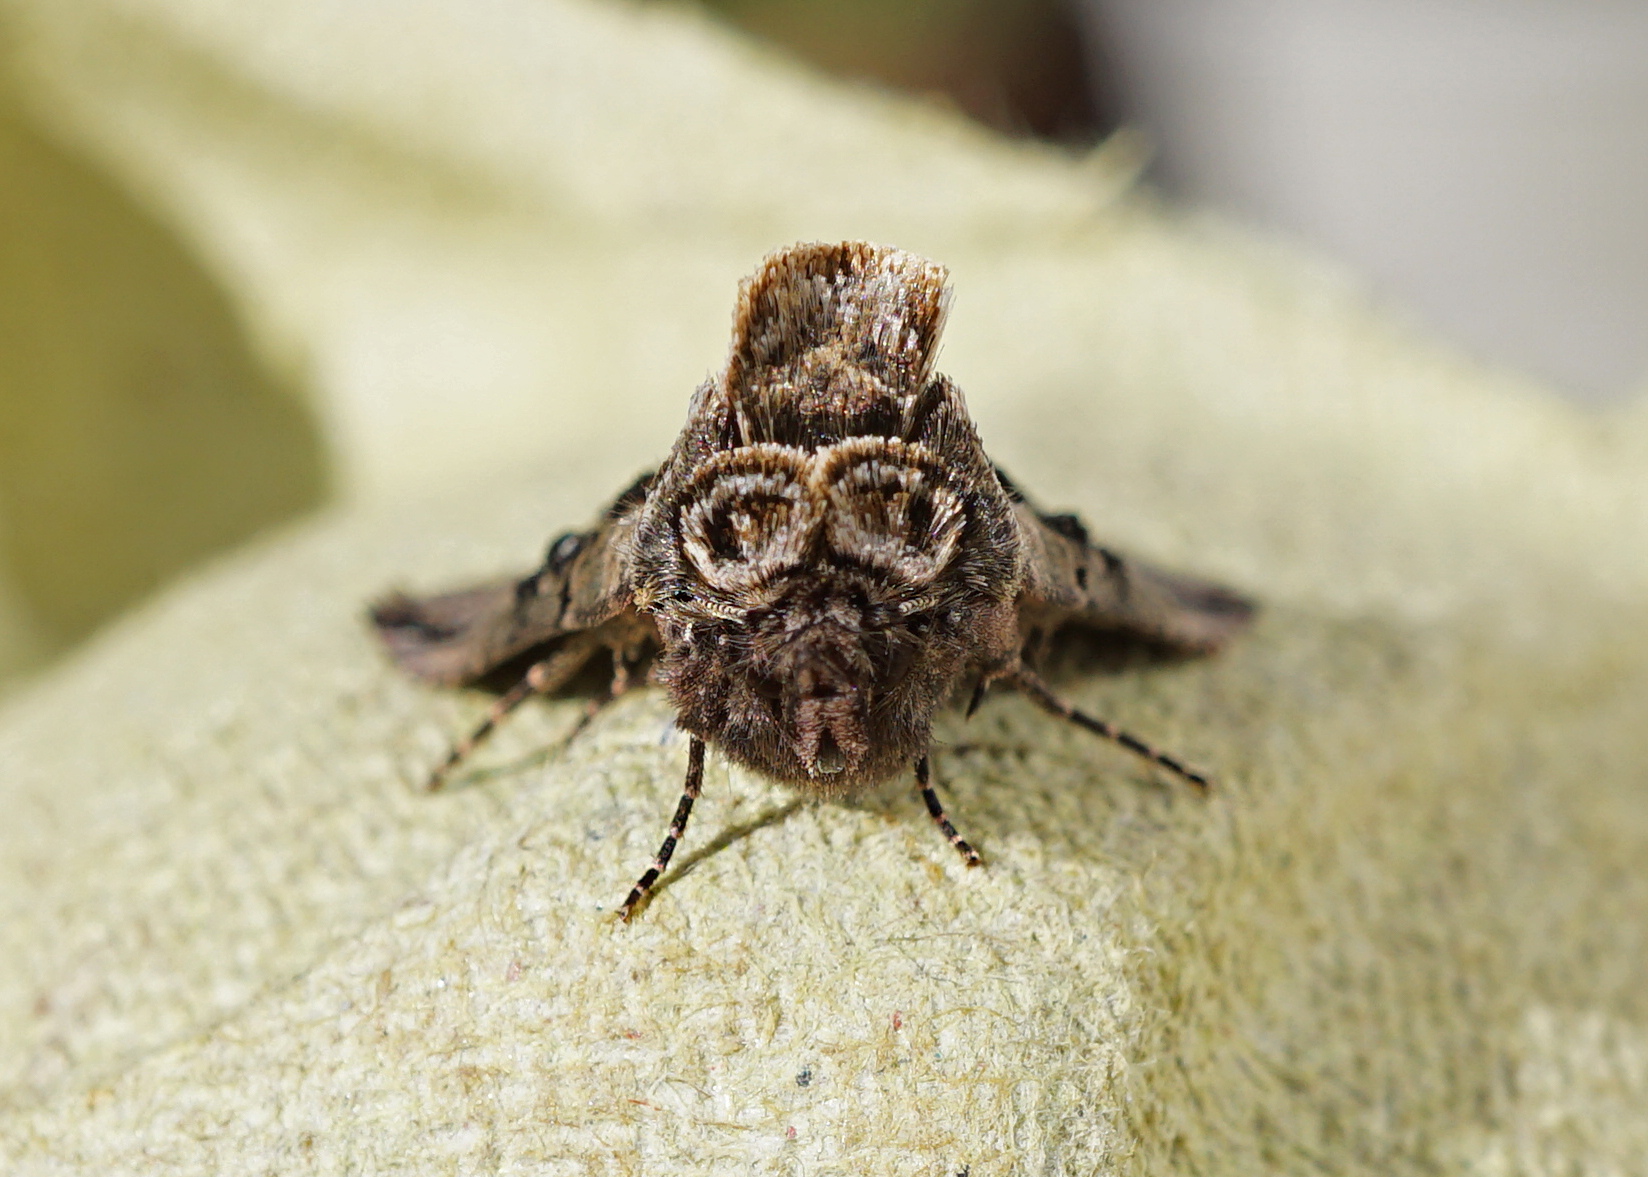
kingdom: Animalia
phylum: Arthropoda
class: Insecta
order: Lepidoptera
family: Noctuidae
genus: Abrostola
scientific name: Abrostola tripartita
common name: Spectacle
